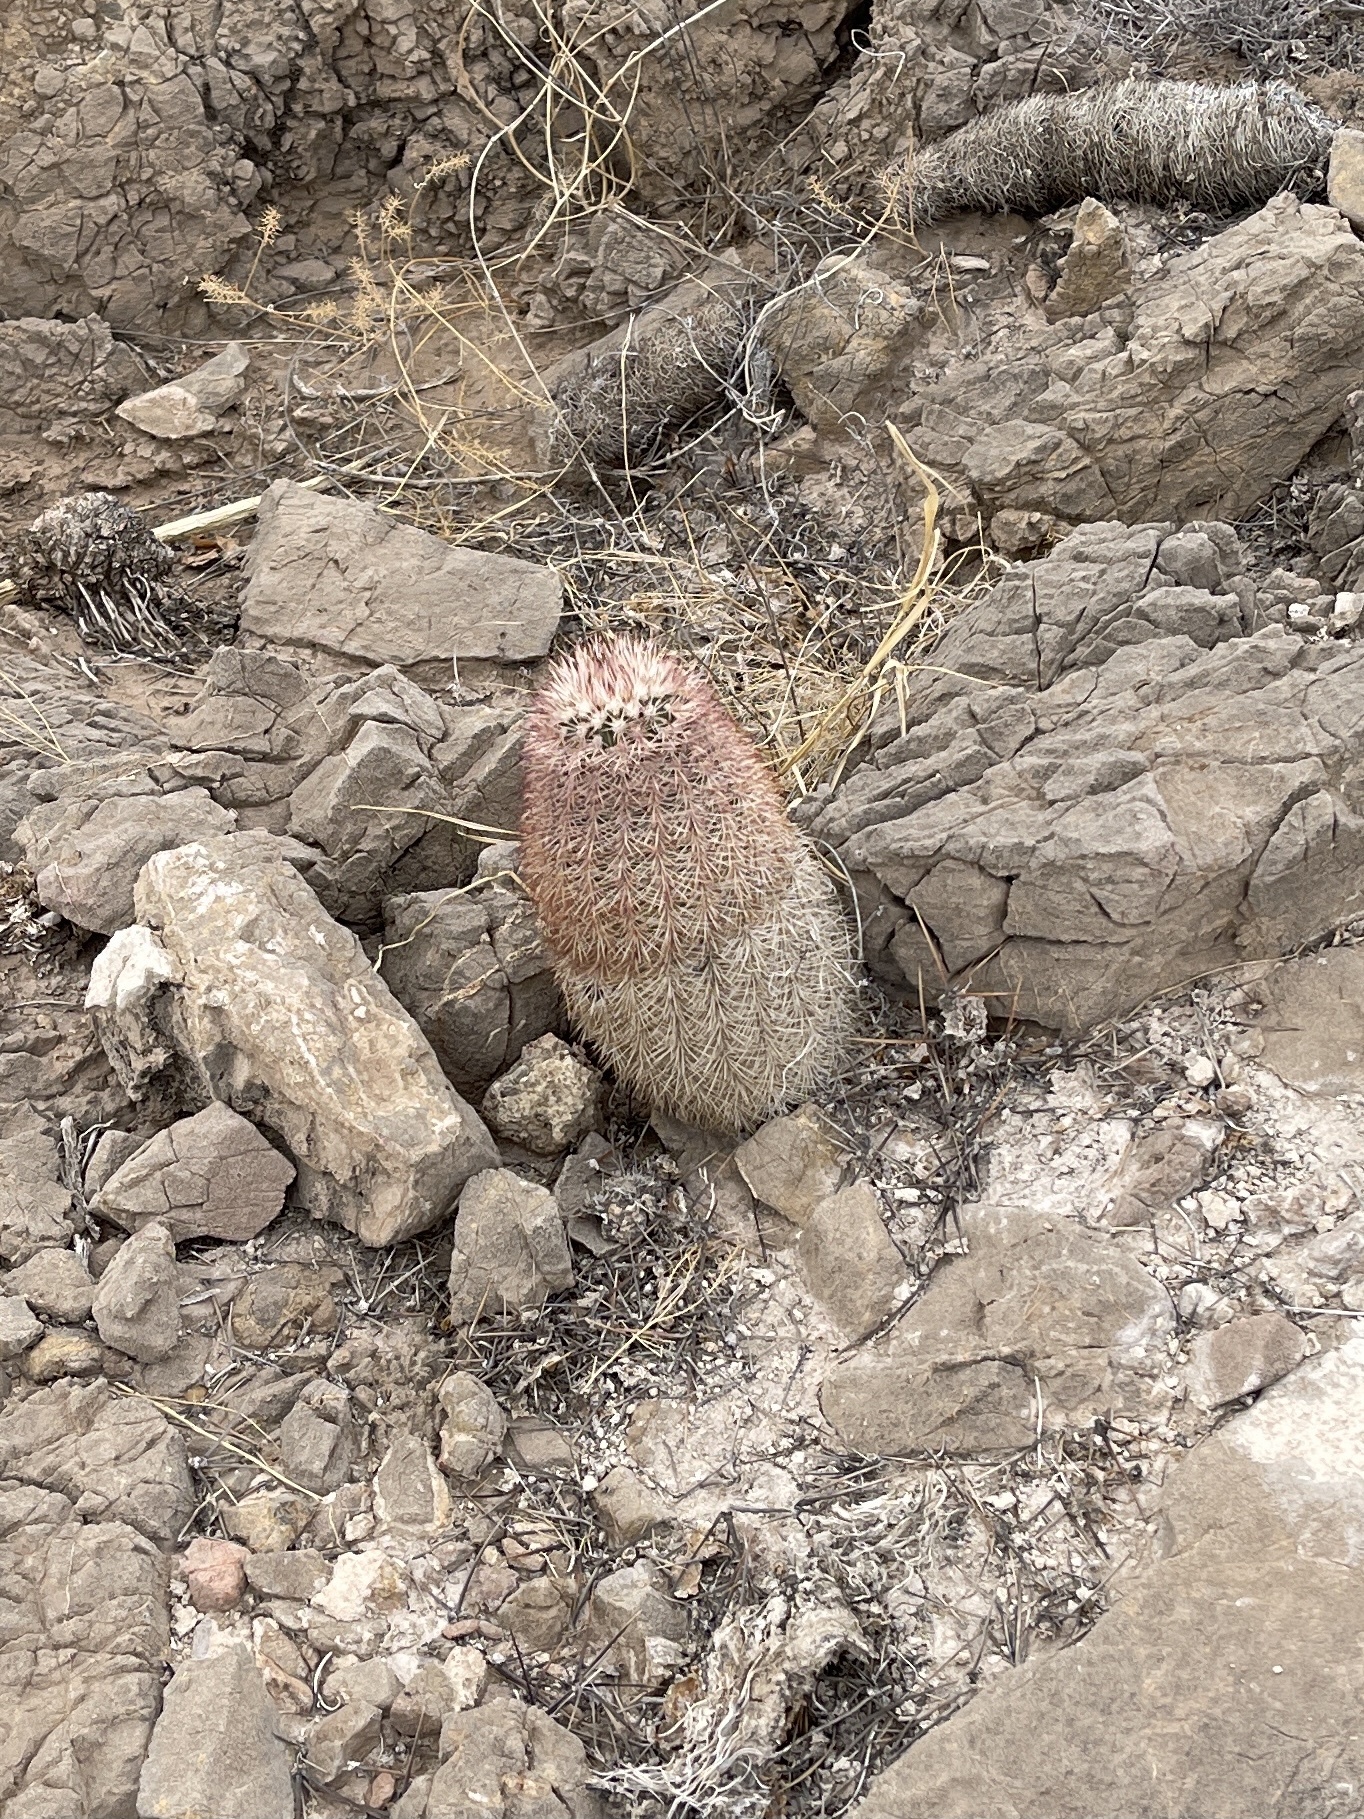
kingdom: Plantae
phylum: Tracheophyta
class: Magnoliopsida
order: Caryophyllales
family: Cactaceae
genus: Echinocereus
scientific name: Echinocereus dasyacanthus
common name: Spiny hedgehog cactus
